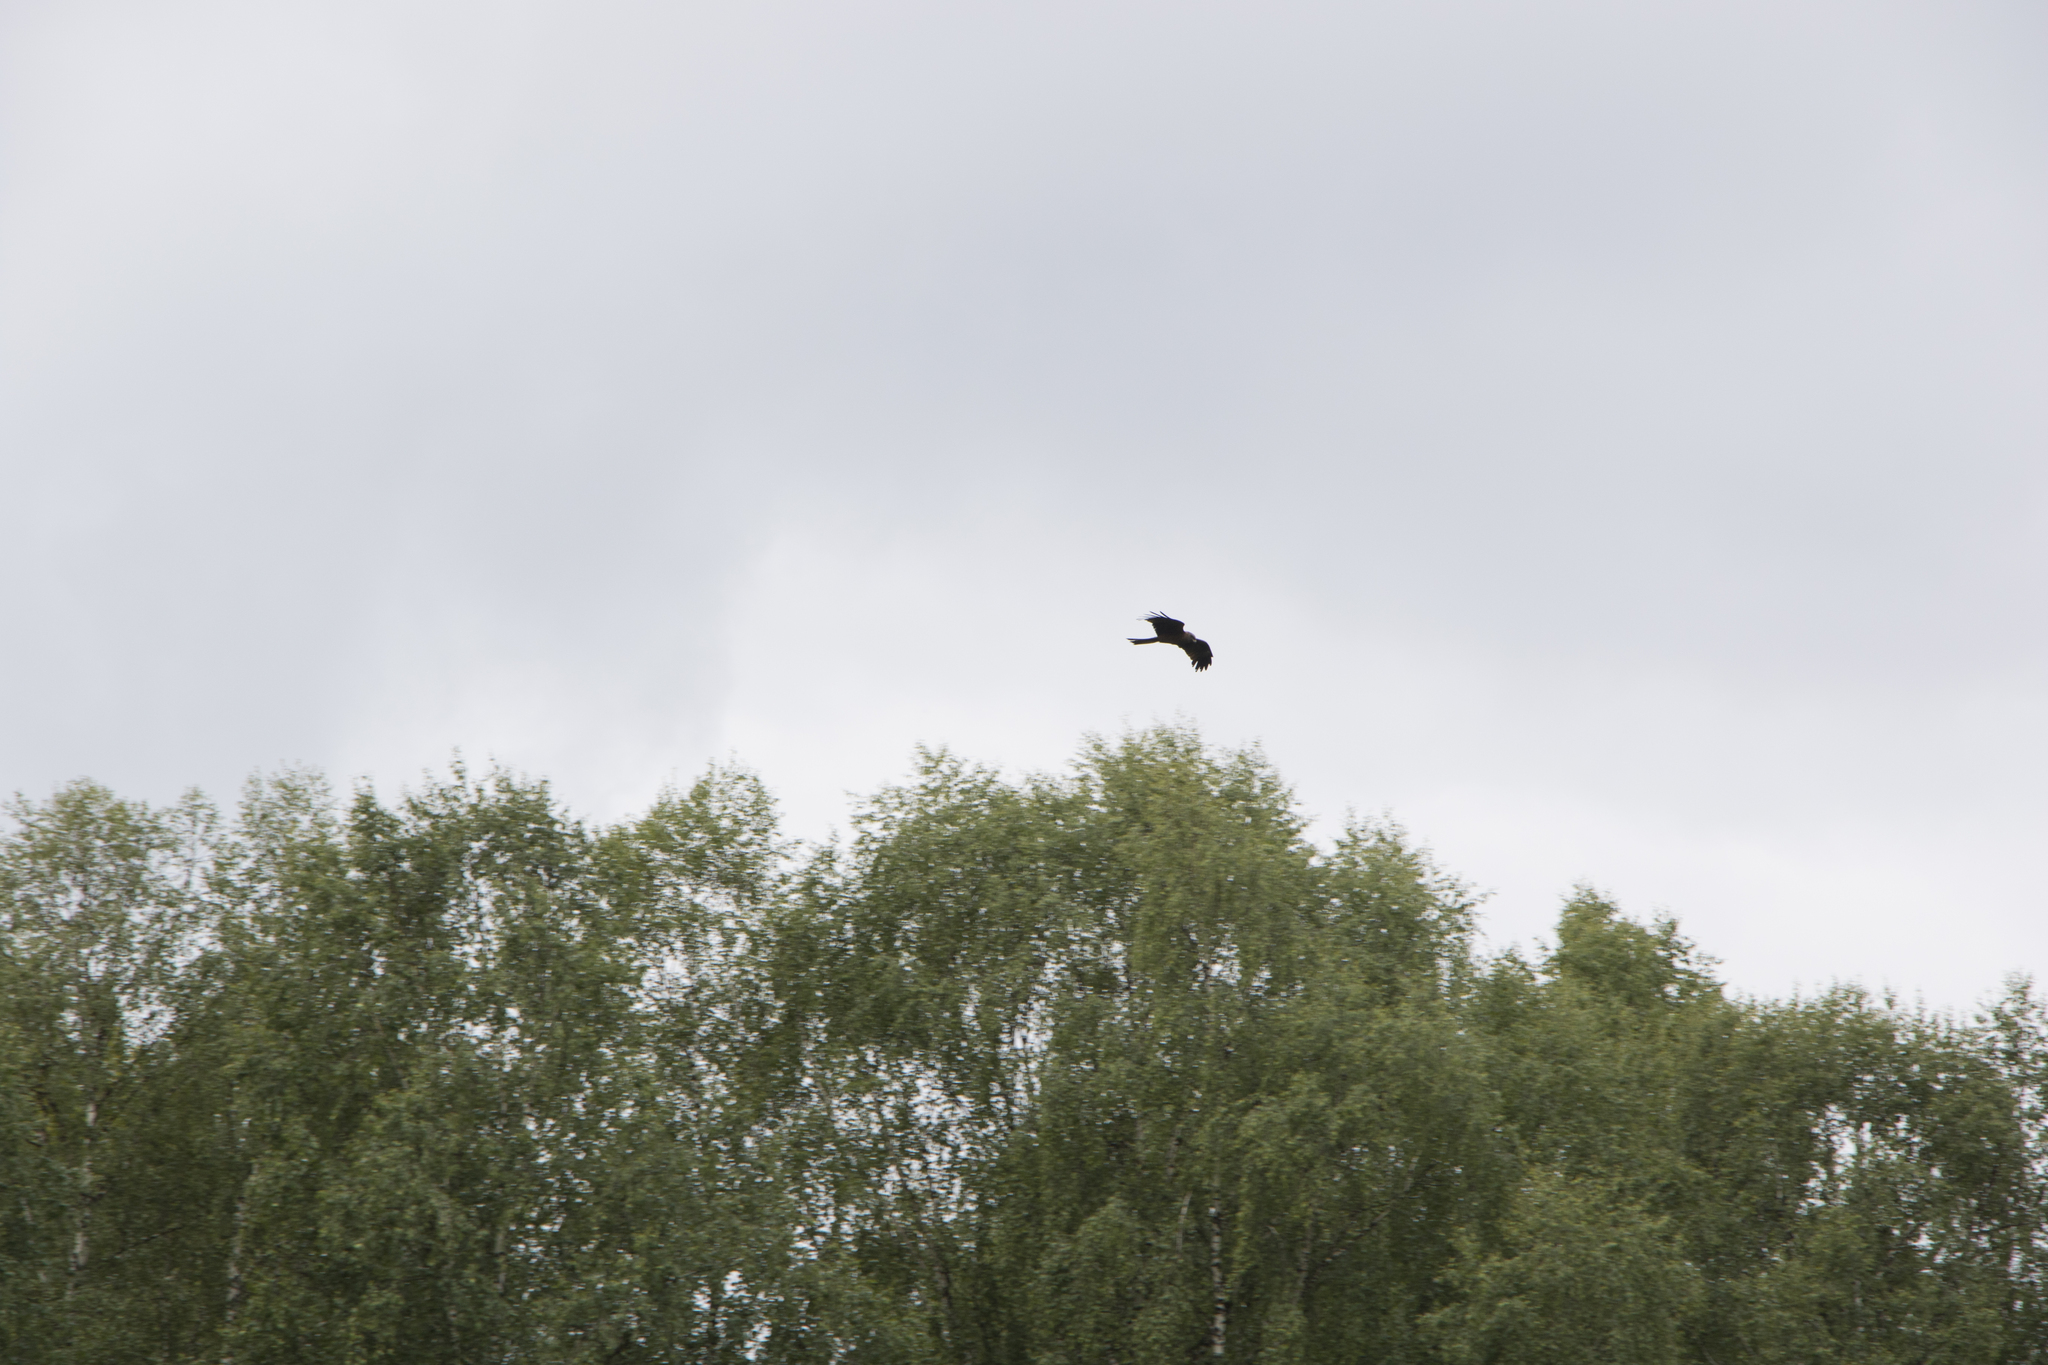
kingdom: Animalia
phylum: Chordata
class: Aves
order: Accipitriformes
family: Accipitridae
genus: Milvus
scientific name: Milvus migrans
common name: Black kite
